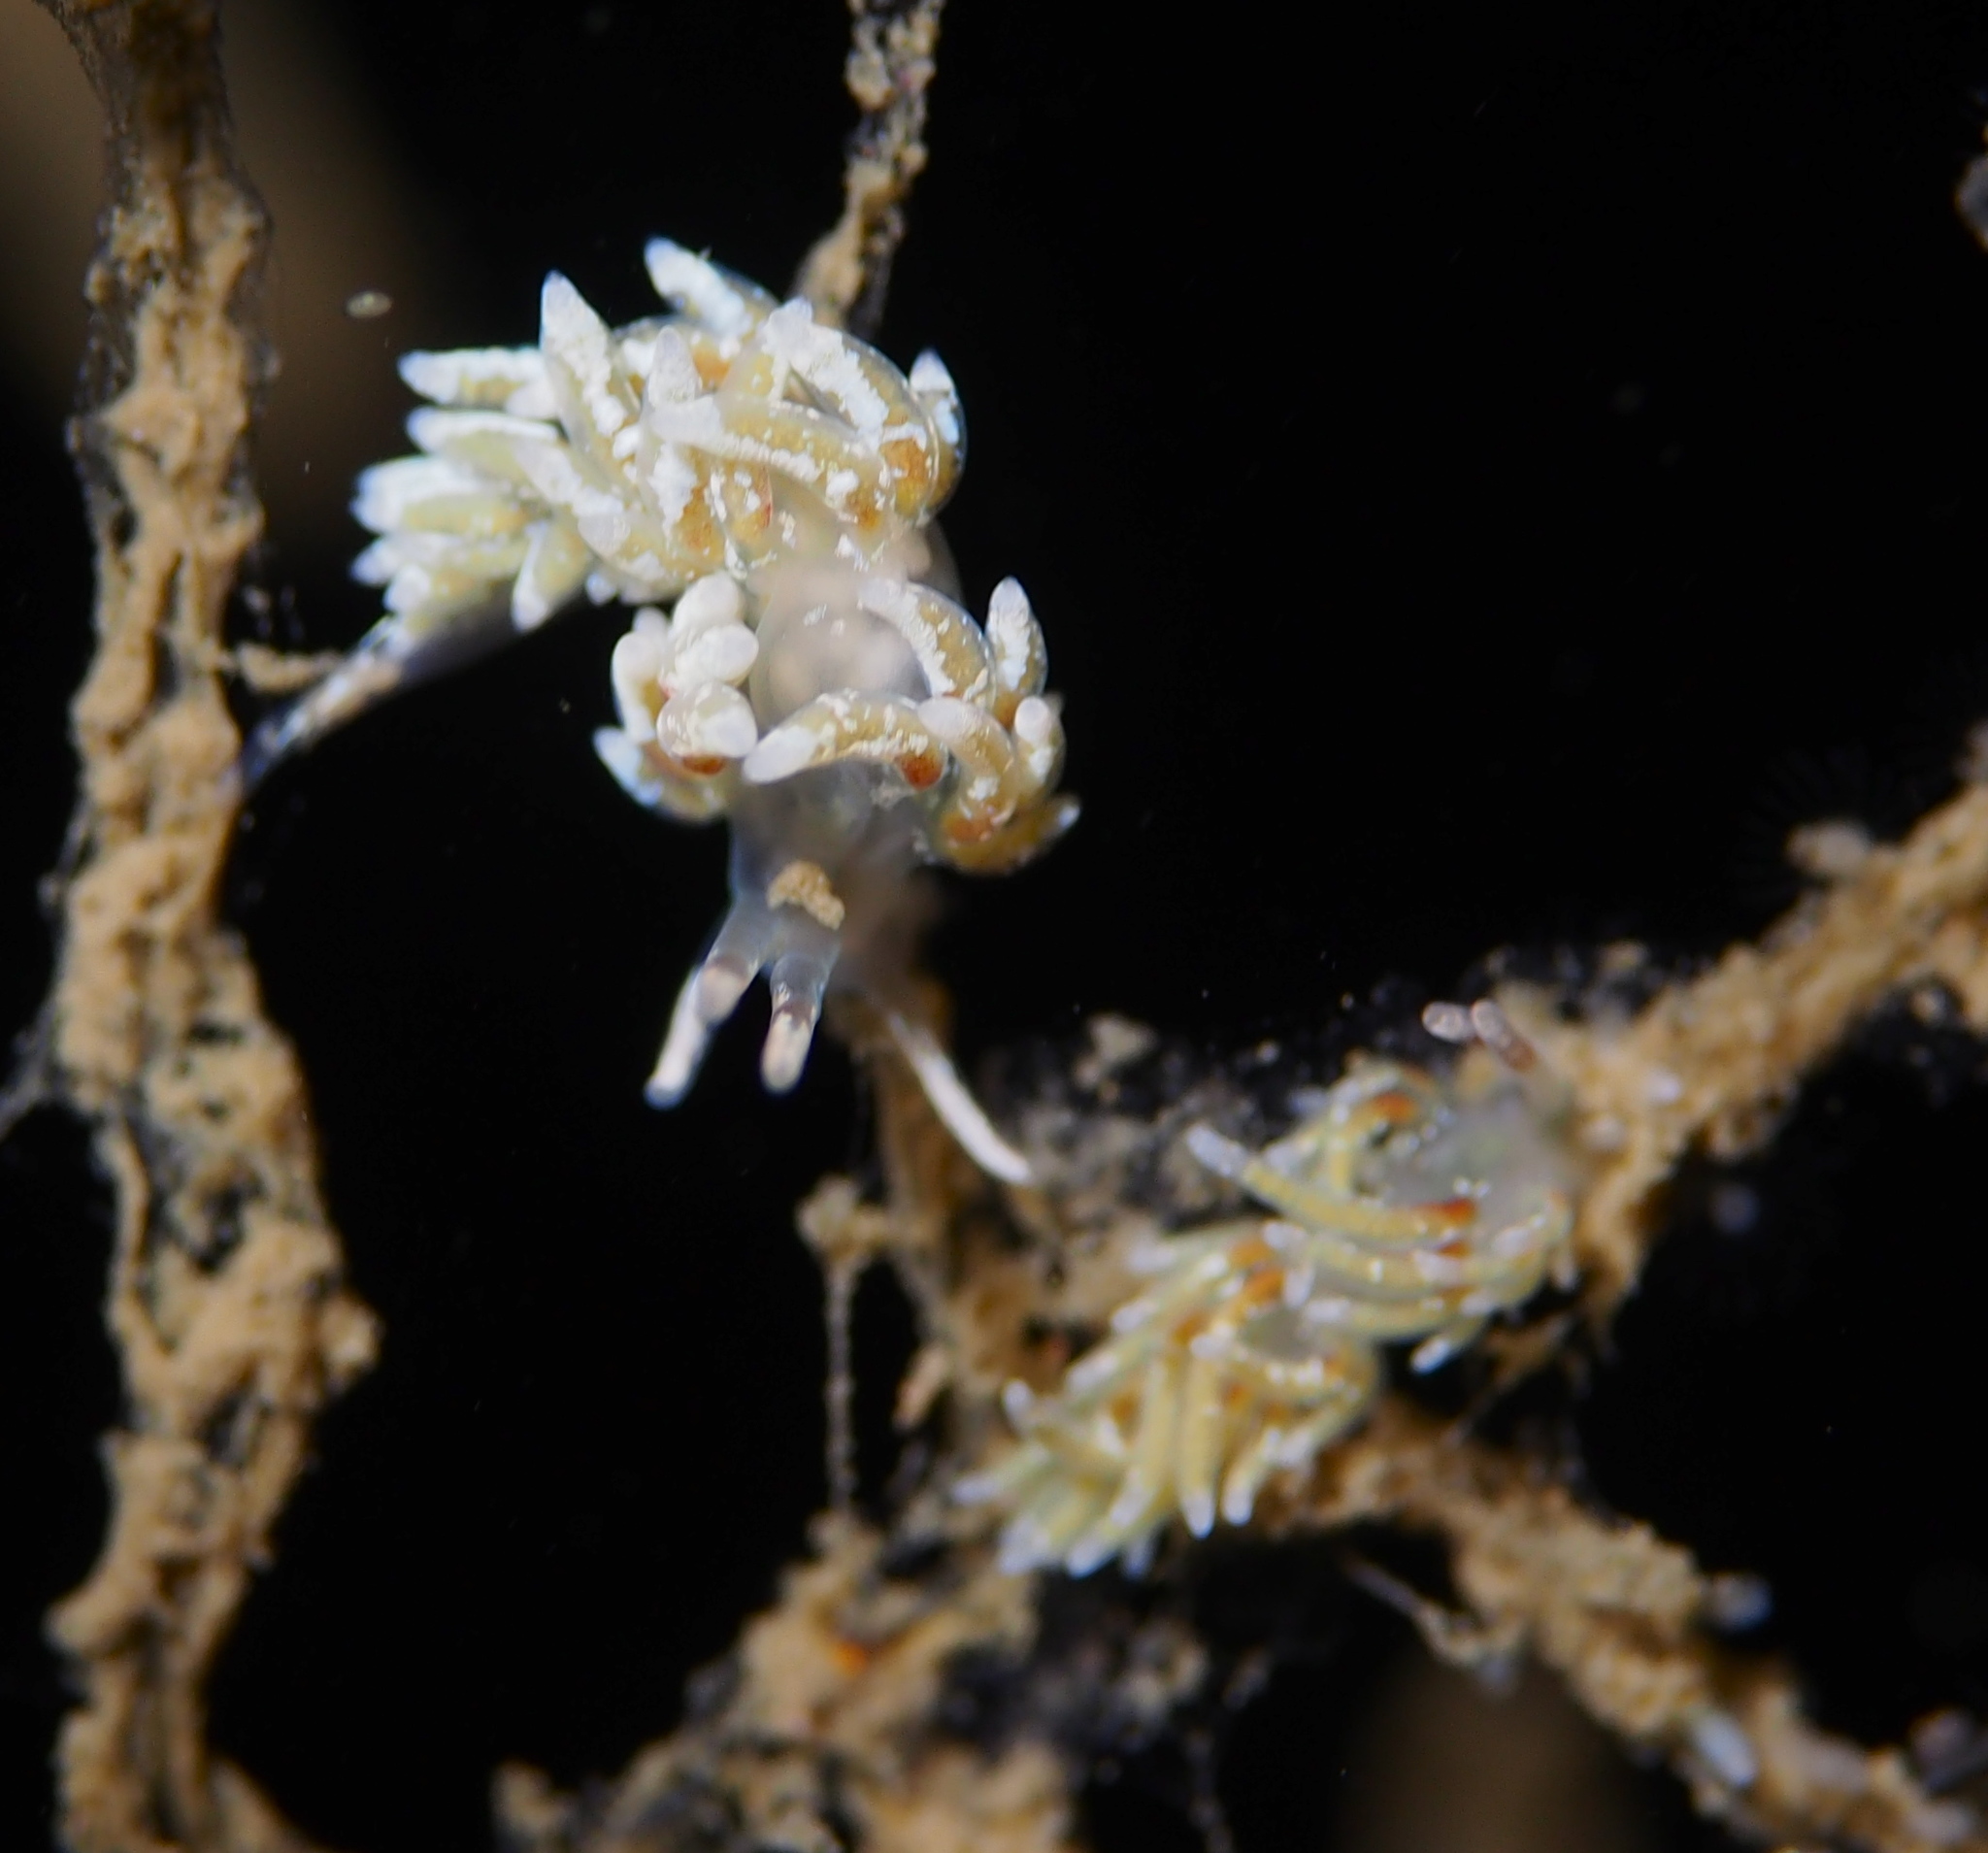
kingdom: Animalia
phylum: Mollusca
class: Gastropoda
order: Nudibranchia
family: Trinchesiidae
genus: Rubramoena
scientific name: Rubramoena rubescens
